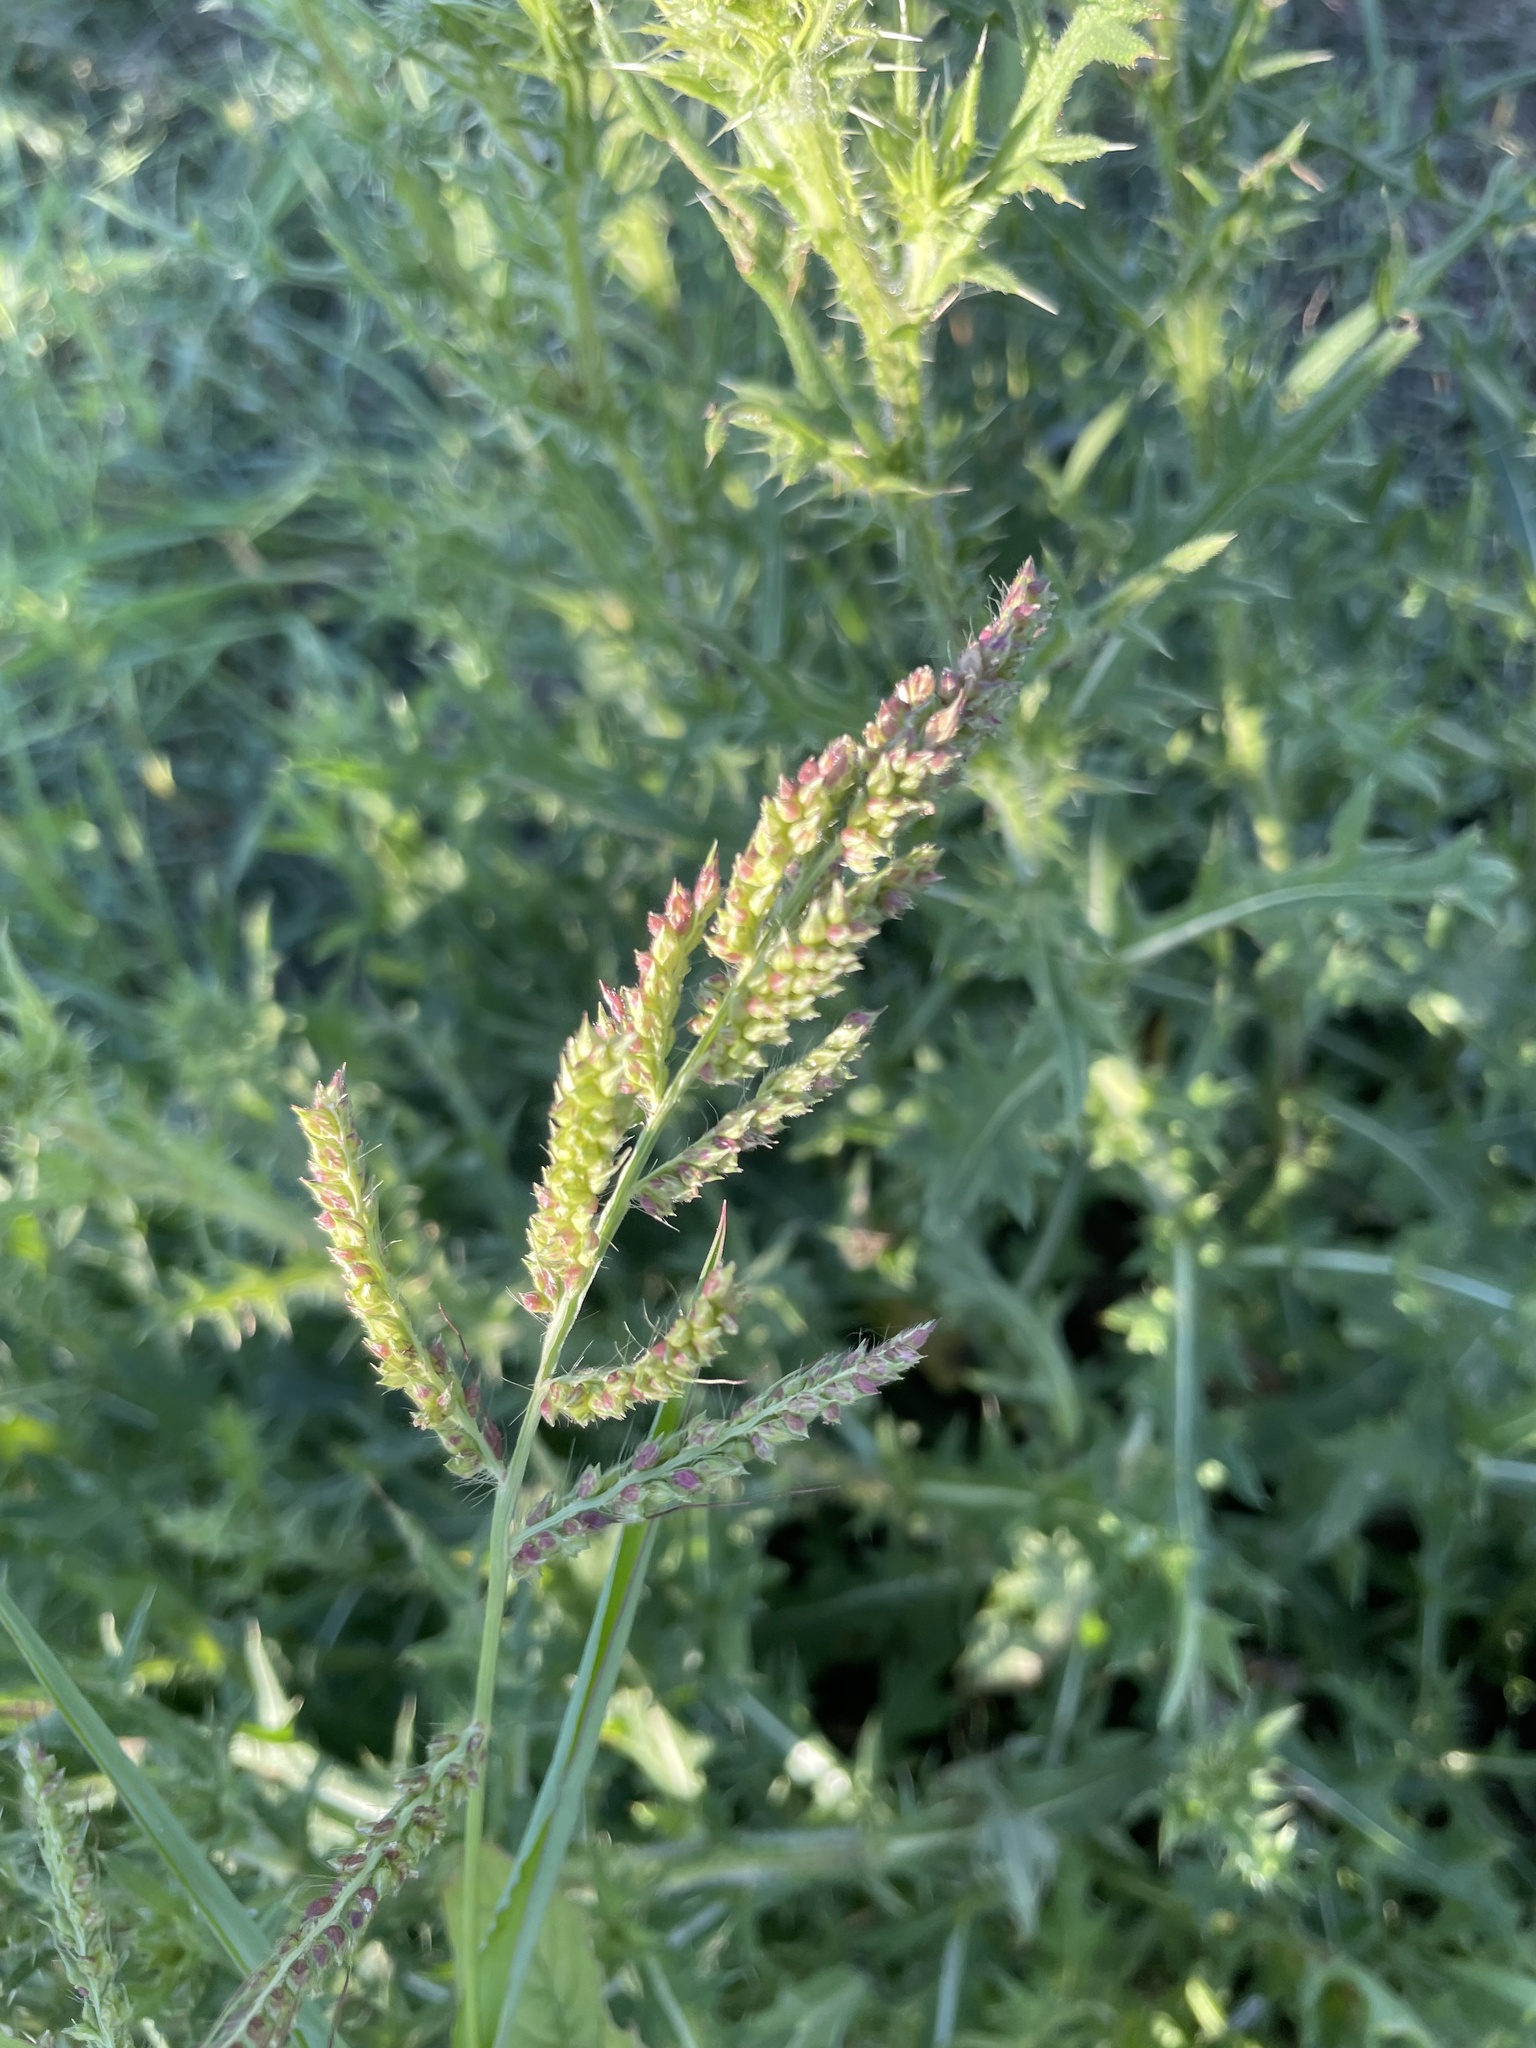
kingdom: Plantae
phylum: Tracheophyta
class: Liliopsida
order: Poales
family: Poaceae
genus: Echinochloa
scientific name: Echinochloa crus-galli
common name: Cockspur
